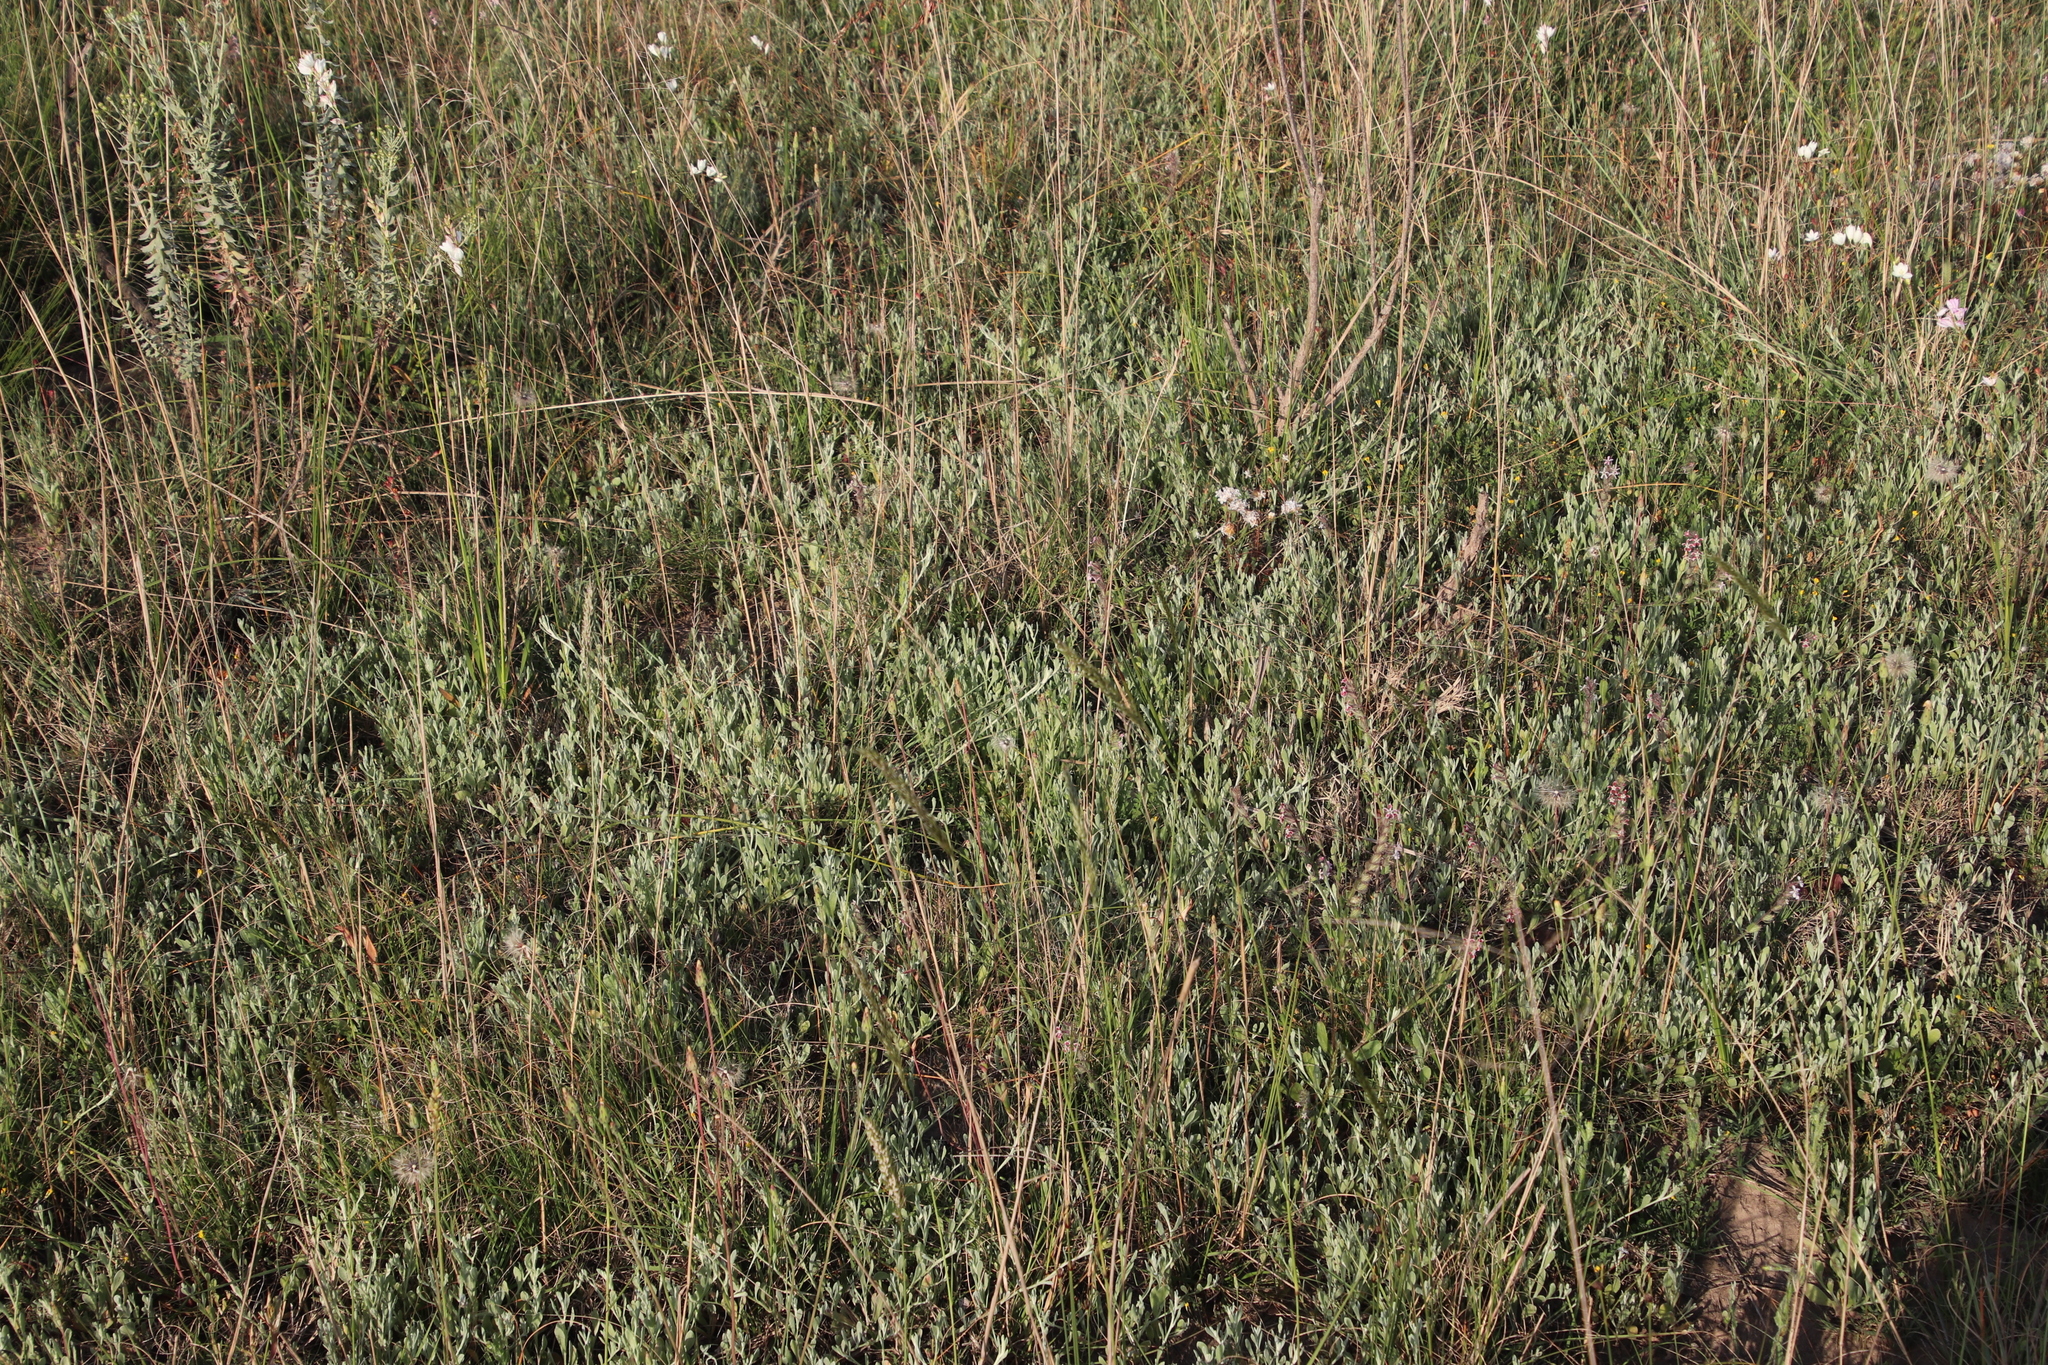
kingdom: Plantae
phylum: Tracheophyta
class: Magnoliopsida
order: Asterales
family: Asteraceae
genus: Helichrysum
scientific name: Helichrysum indicum
